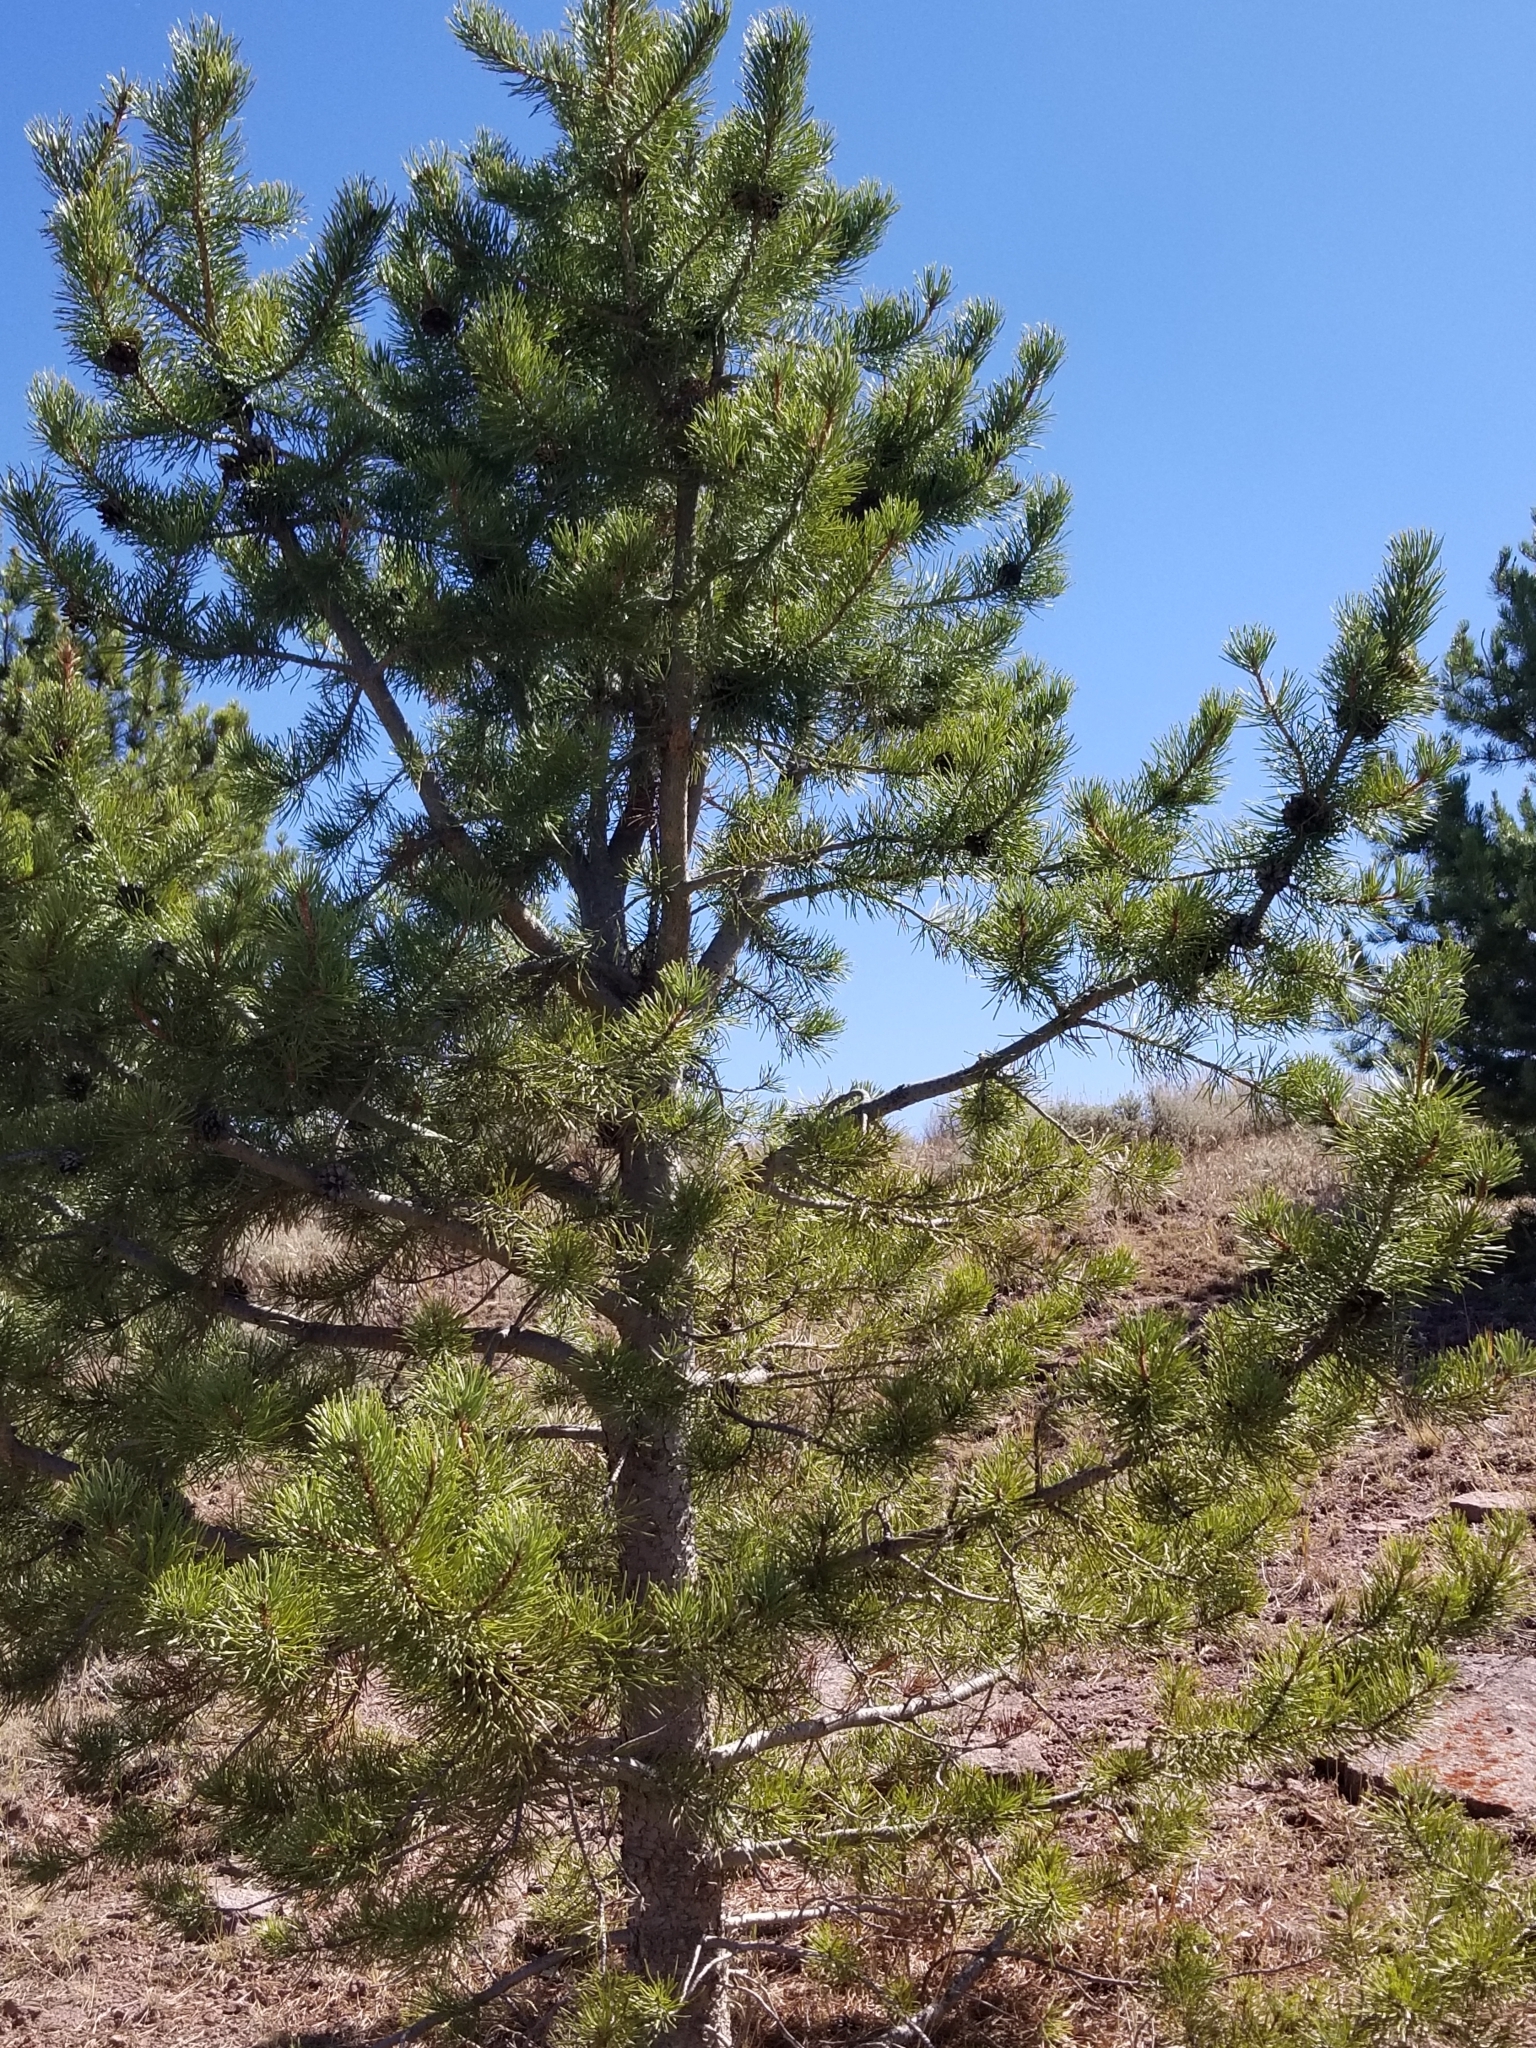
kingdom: Plantae
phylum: Tracheophyta
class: Pinopsida
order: Pinales
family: Pinaceae
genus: Pinus
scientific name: Pinus contorta
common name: Lodgepole pine
